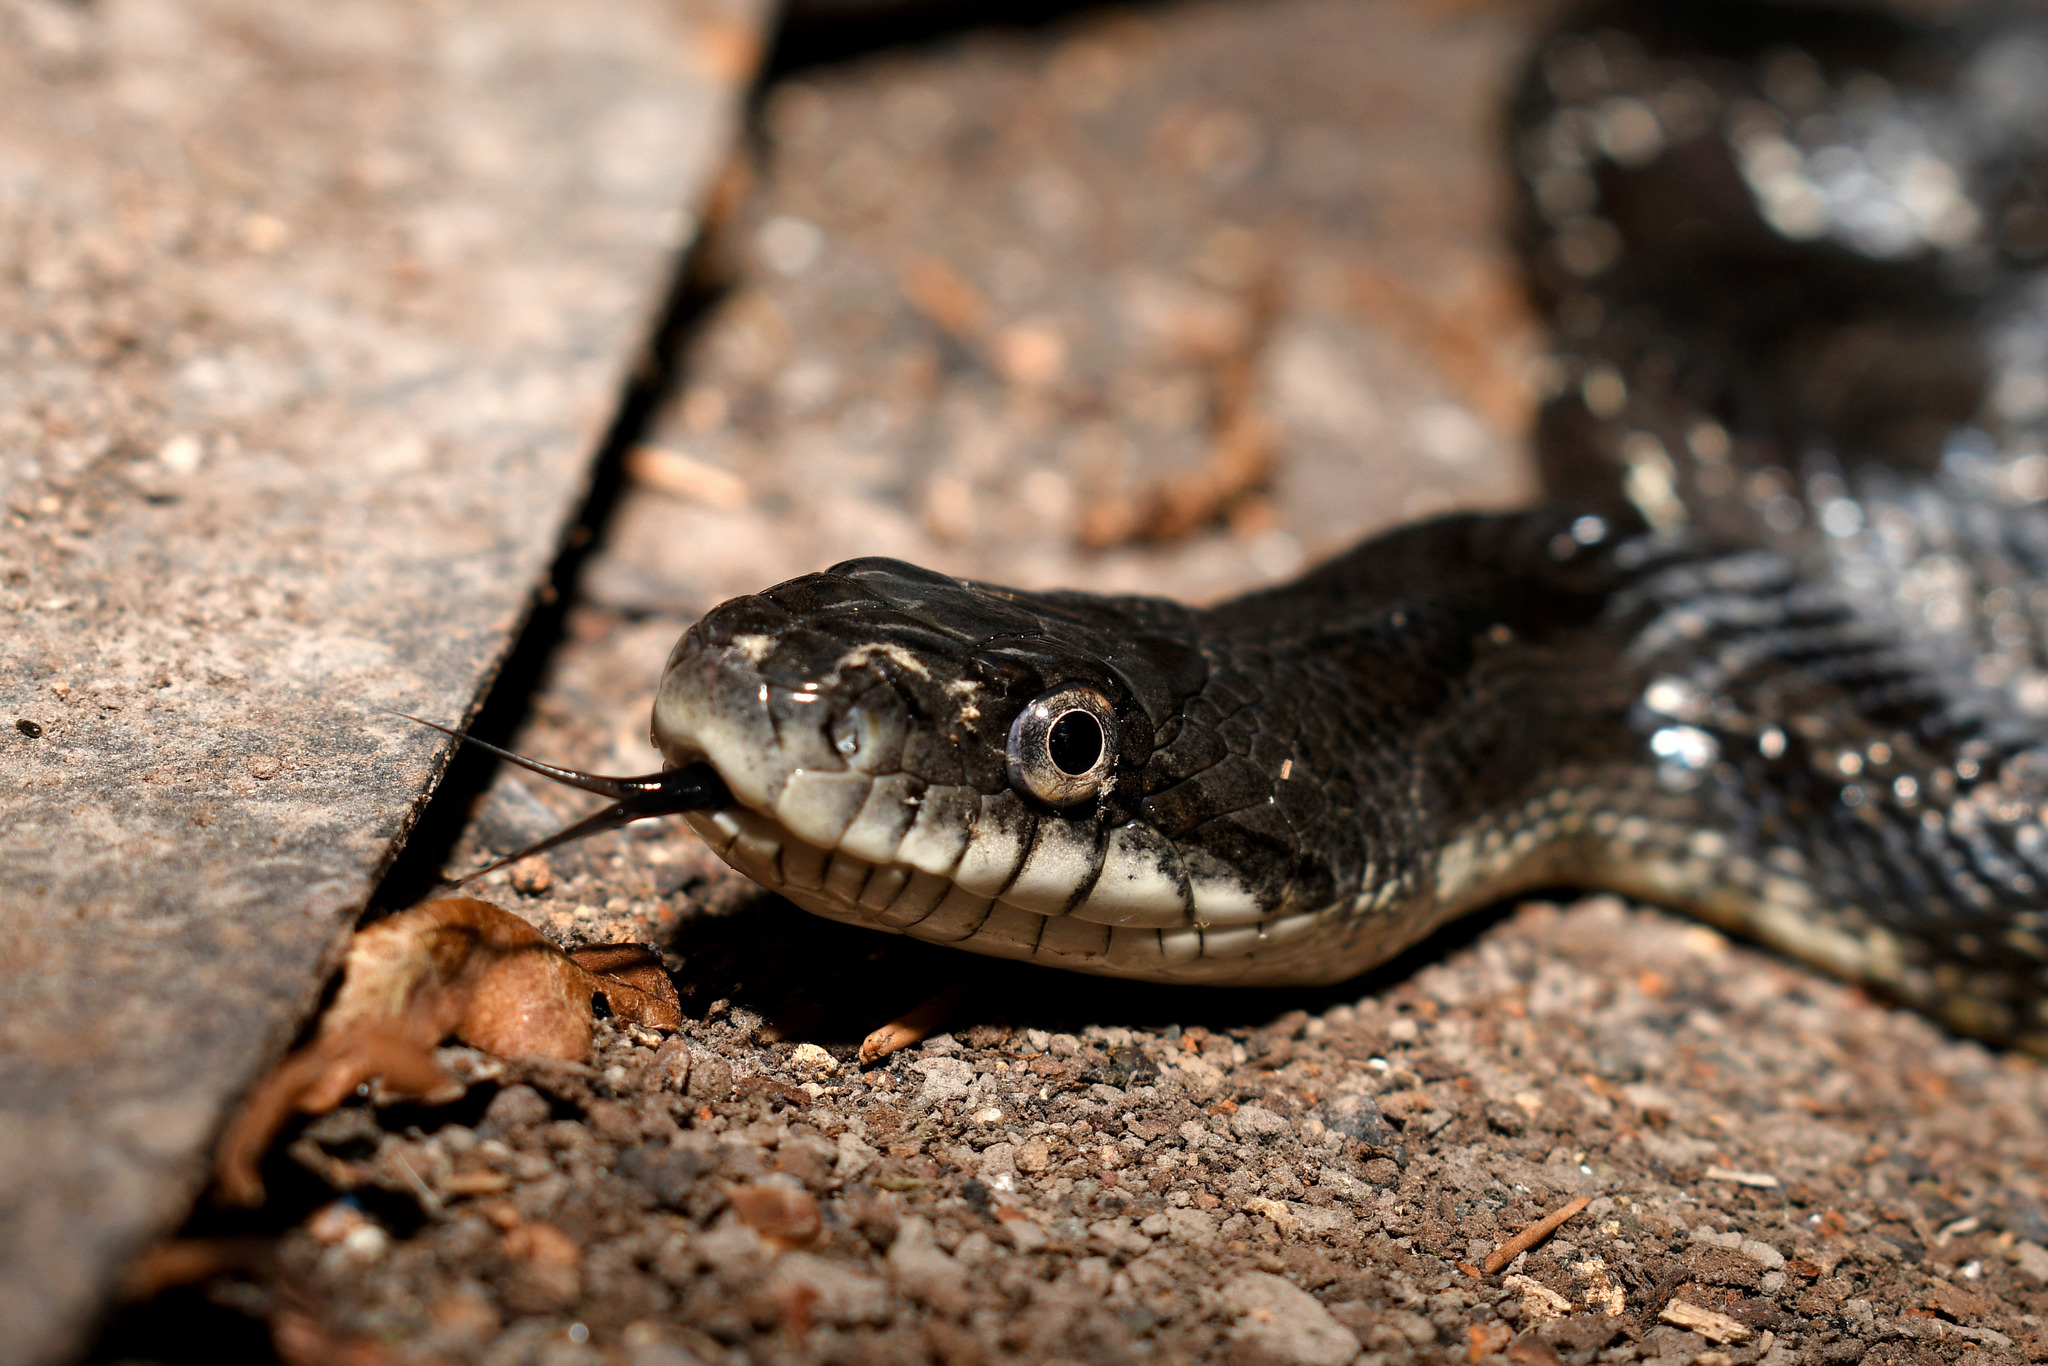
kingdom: Animalia
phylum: Chordata
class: Squamata
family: Colubridae
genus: Pantherophis
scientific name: Pantherophis alleghaniensis
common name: Eastern rat snake
